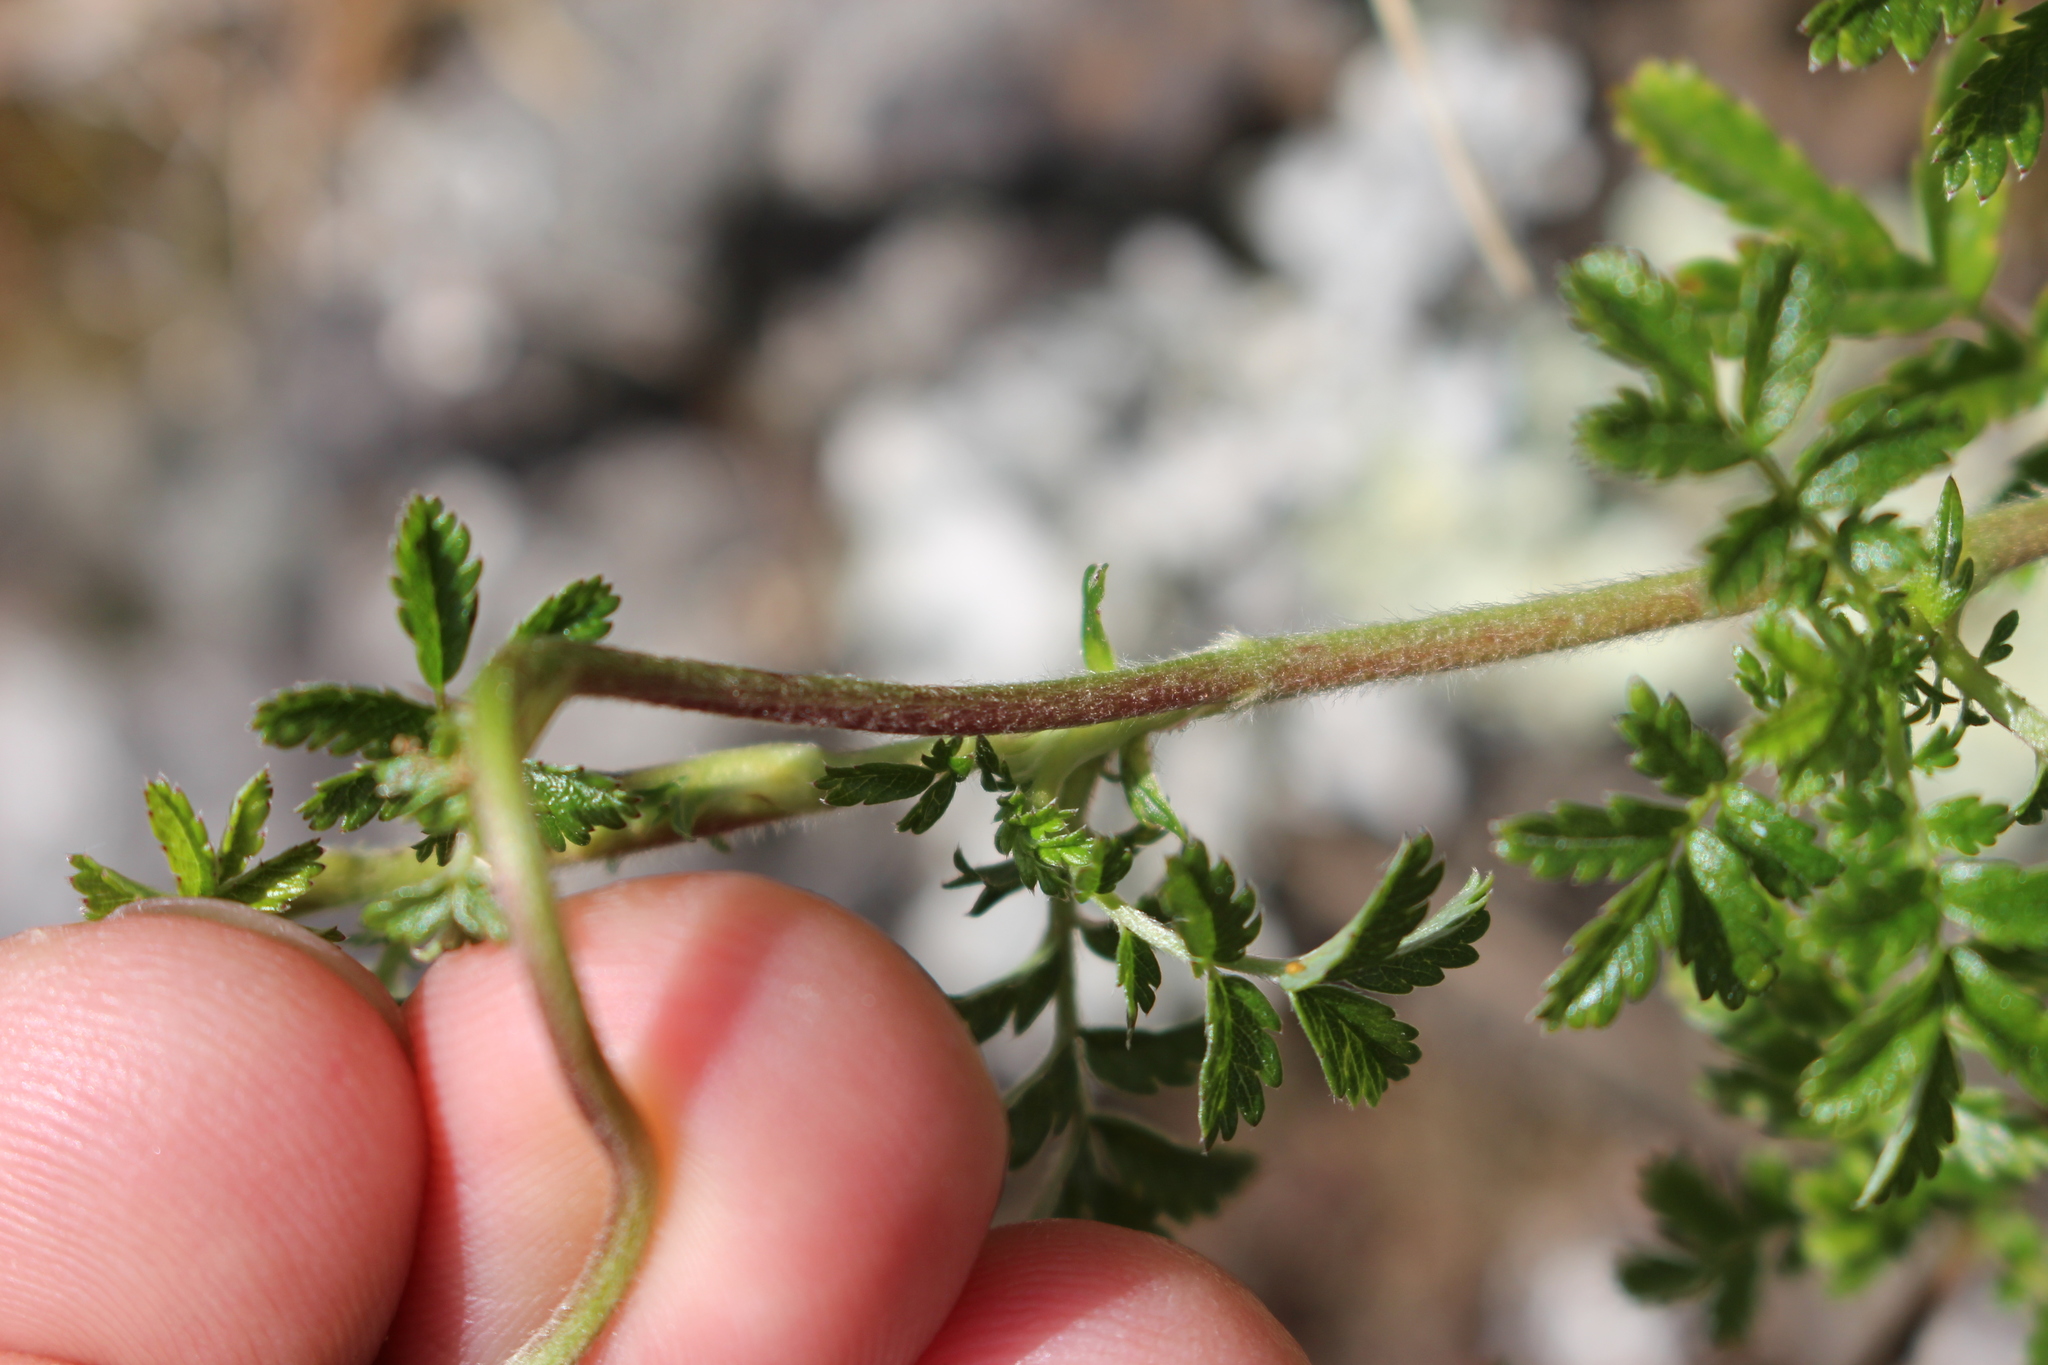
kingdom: Plantae
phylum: Tracheophyta
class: Magnoliopsida
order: Rosales
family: Rosaceae
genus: Acaena
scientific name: Acaena novae-zelandiae
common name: Pirri-pirri-bur
